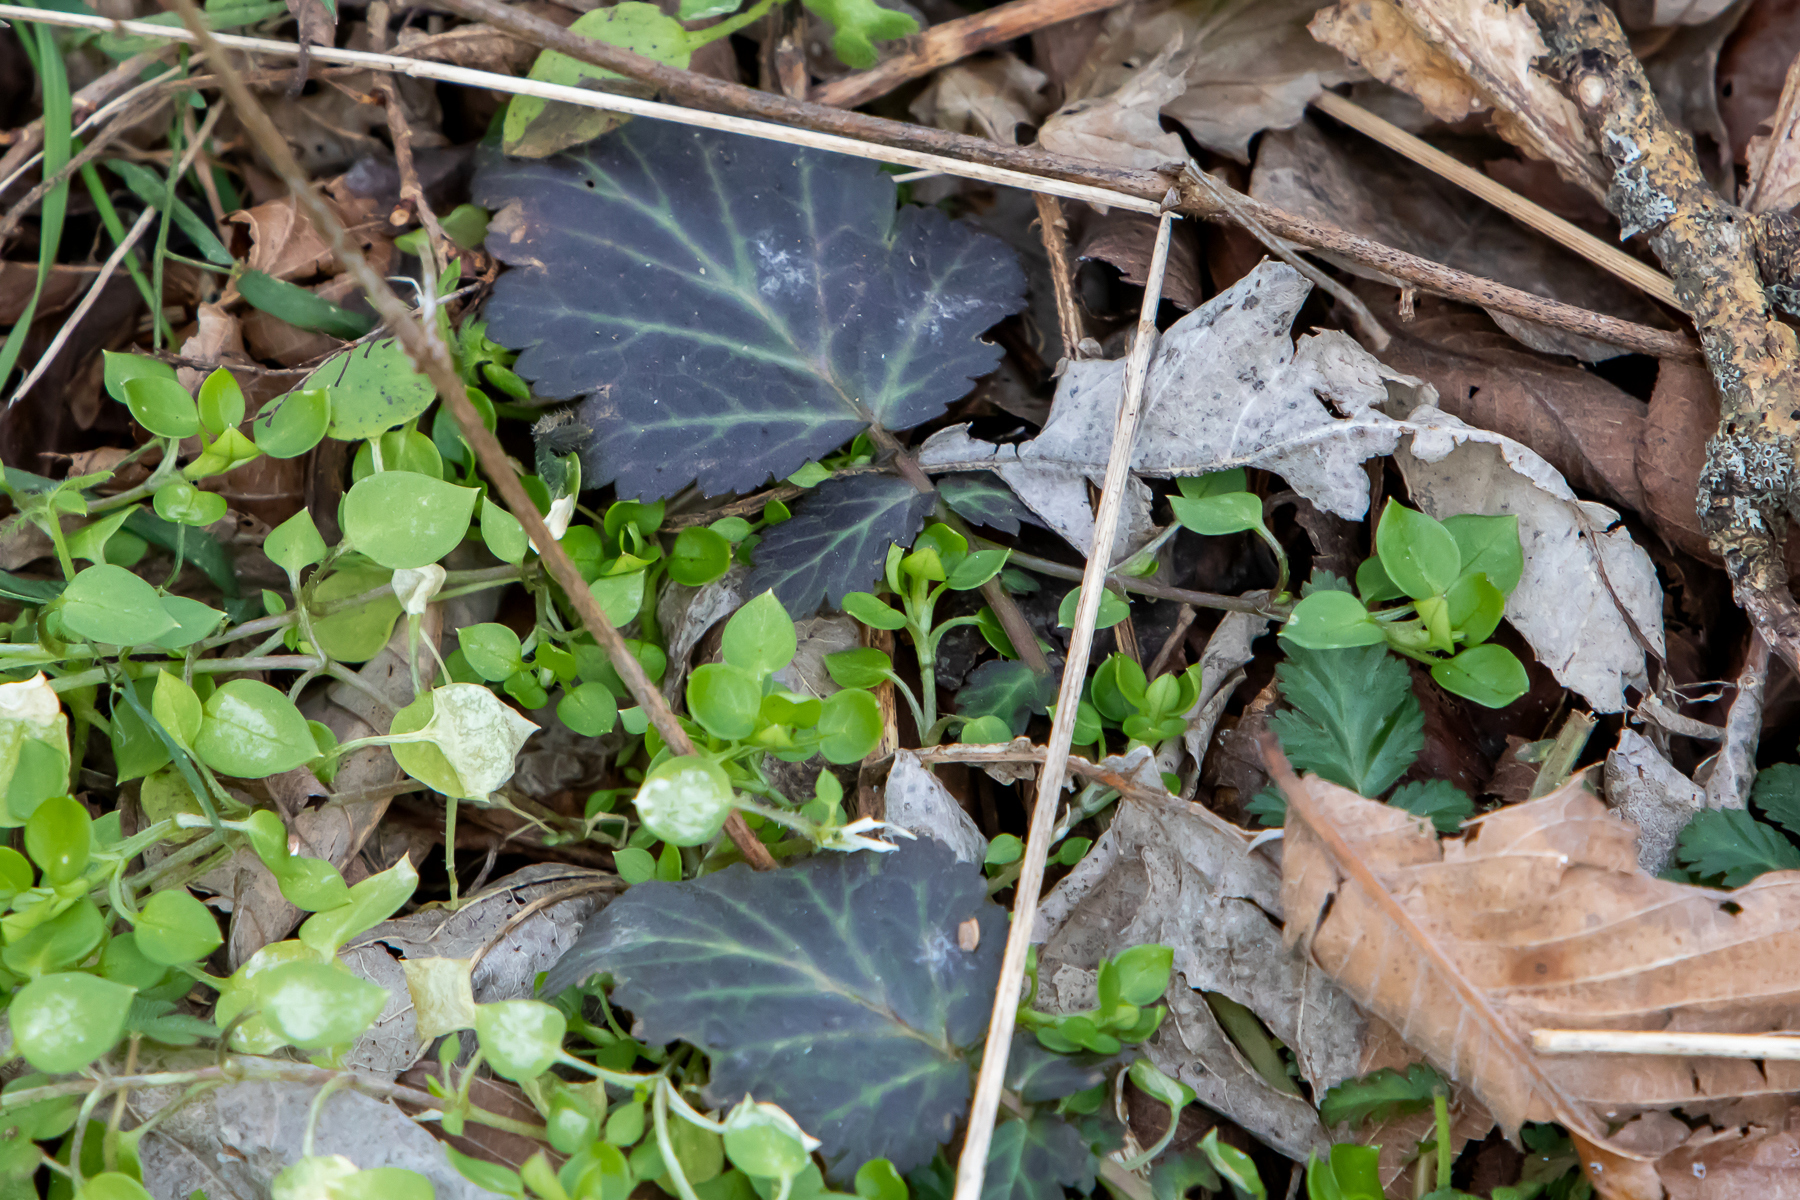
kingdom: Plantae
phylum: Tracheophyta
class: Magnoliopsida
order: Rosales
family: Rosaceae
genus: Geum
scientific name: Geum canadense
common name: White avens
